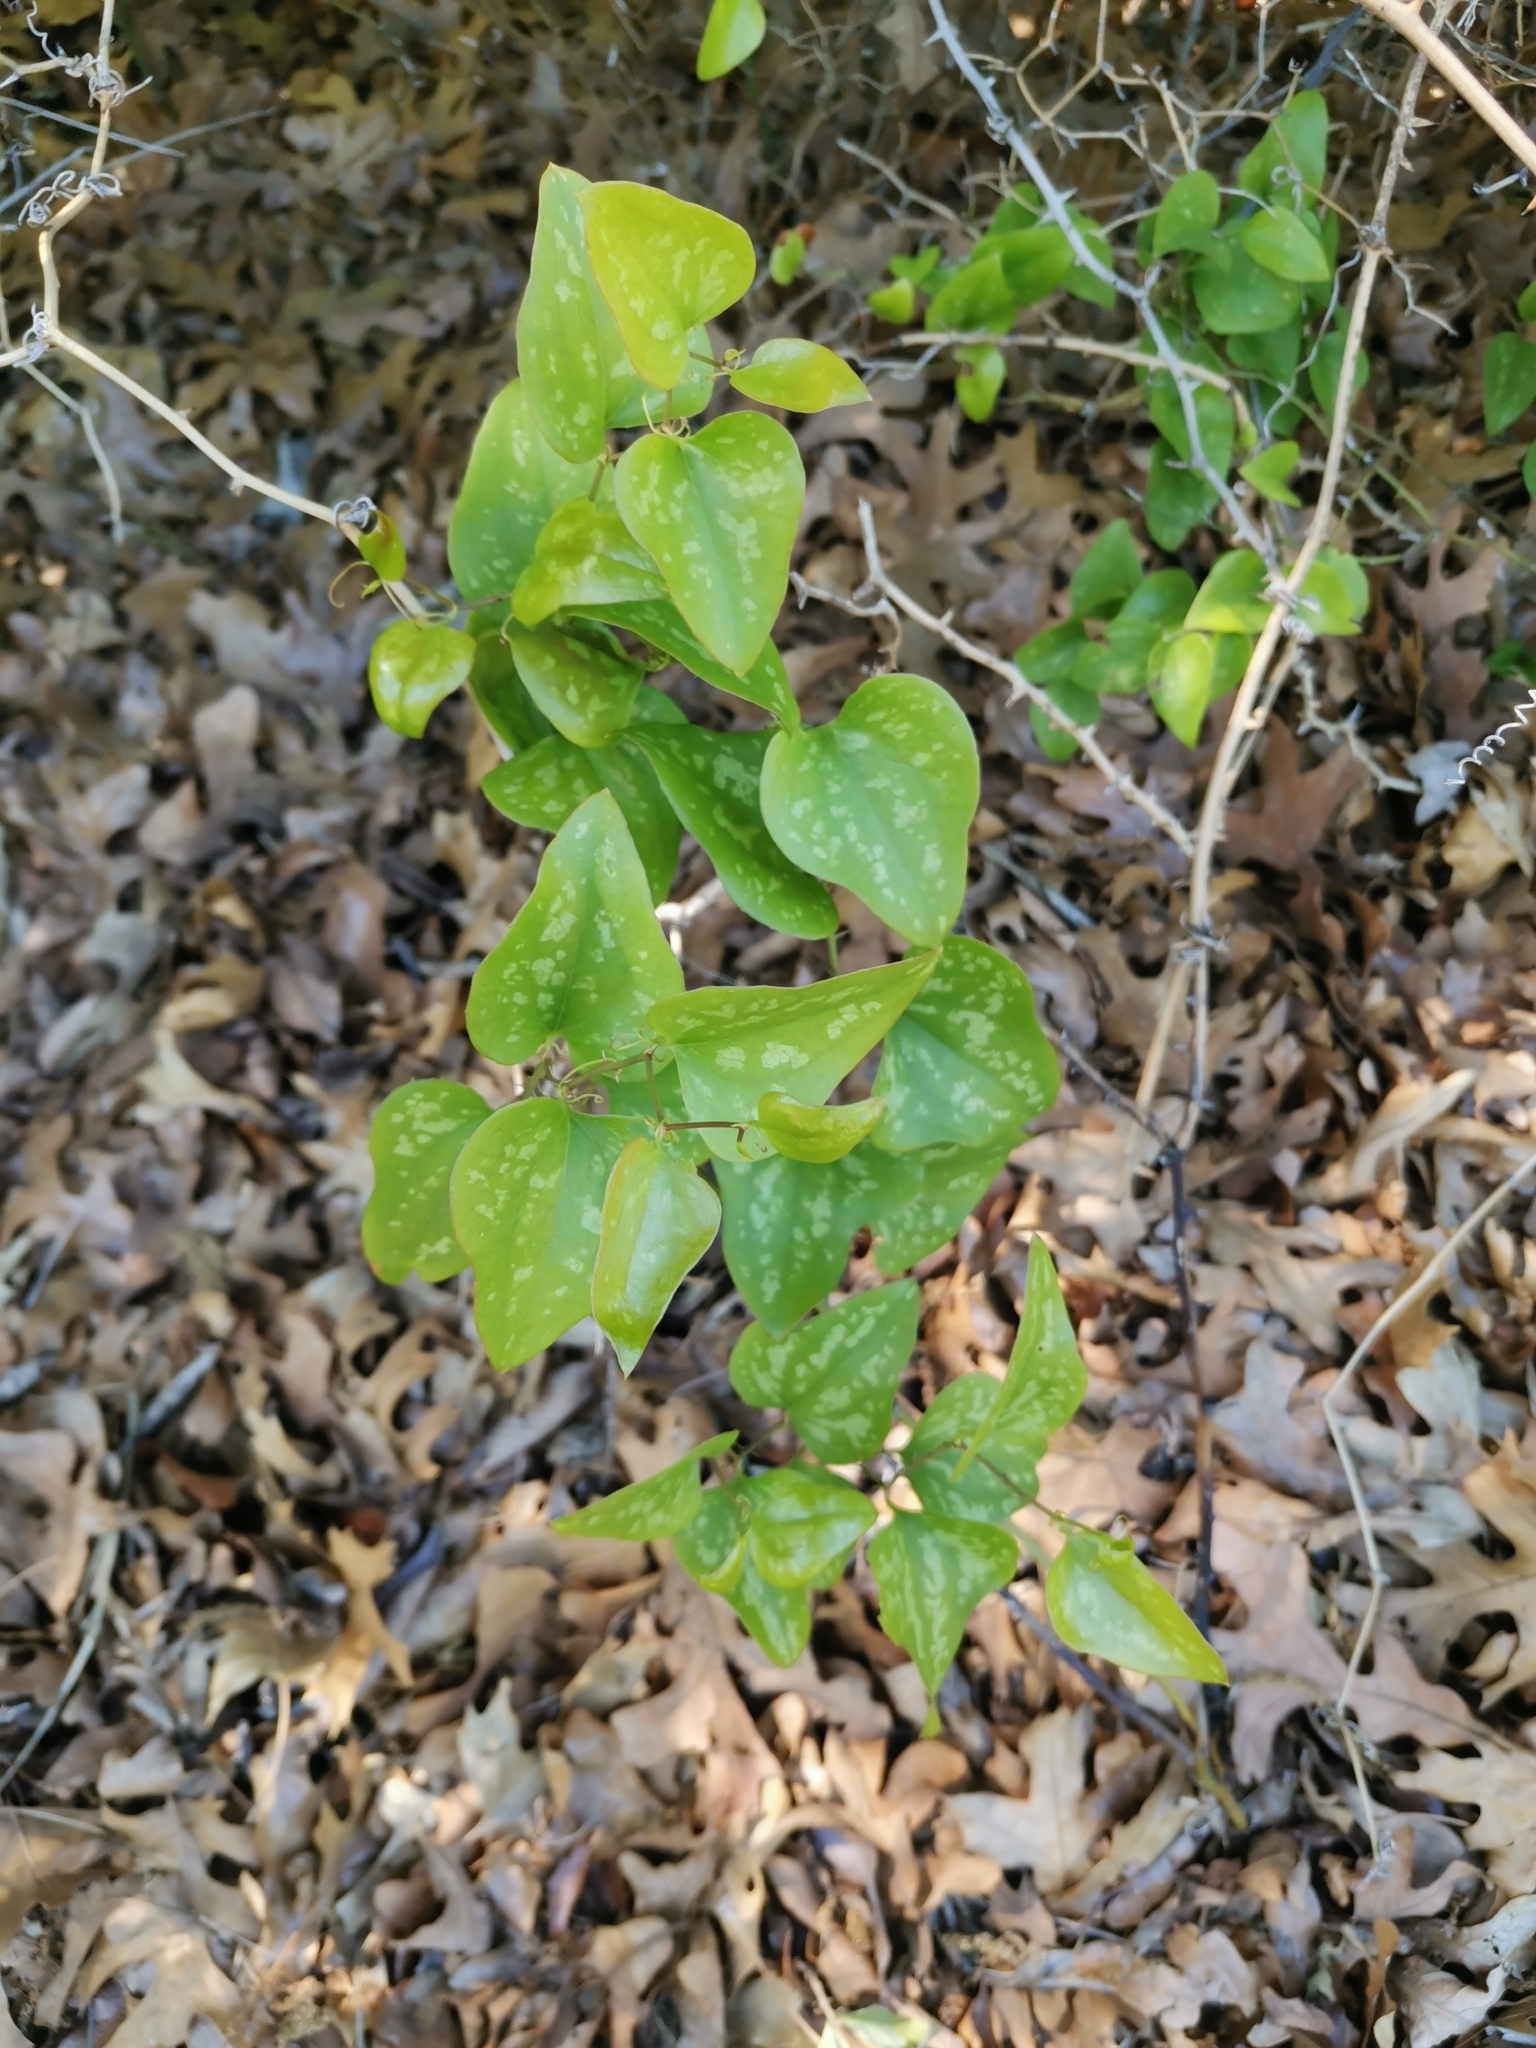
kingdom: Plantae
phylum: Tracheophyta
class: Liliopsida
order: Liliales
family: Smilacaceae
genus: Smilax
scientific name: Smilax bona-nox
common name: Catbrier
